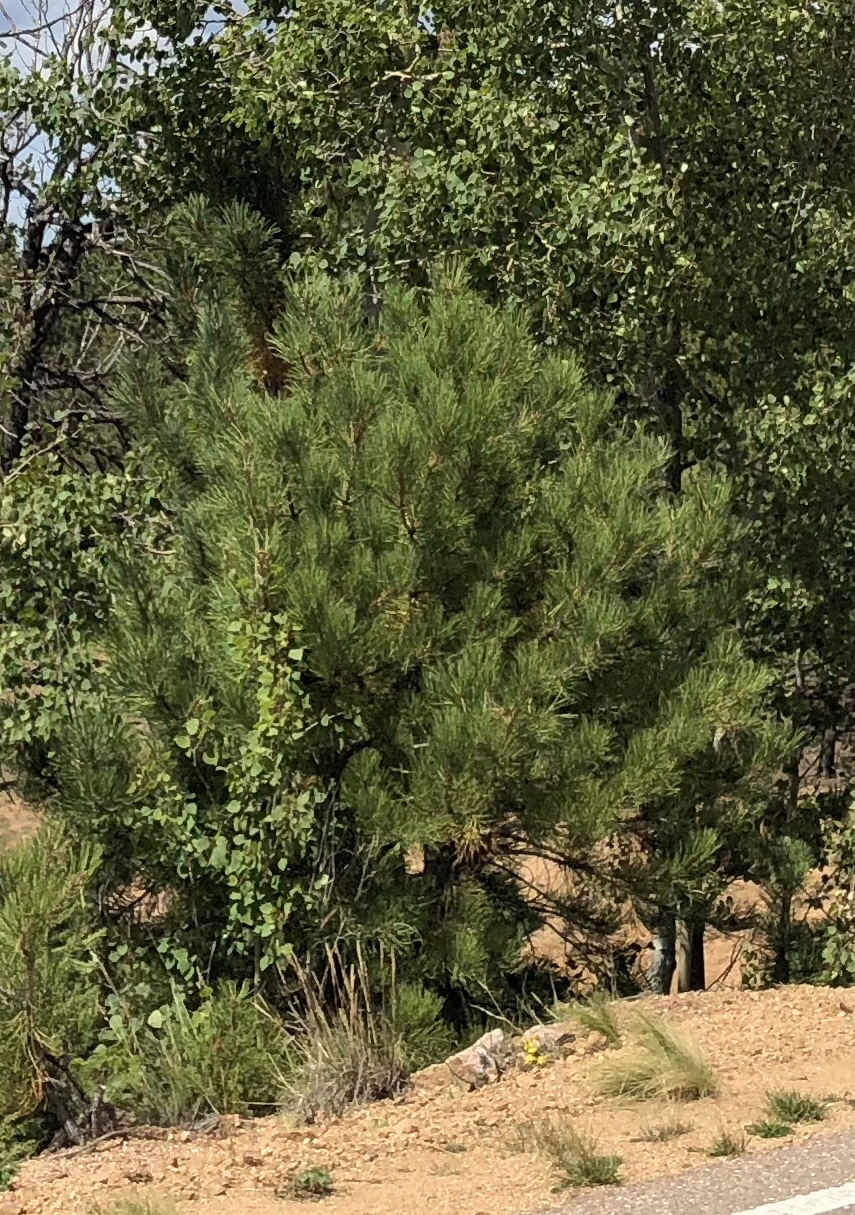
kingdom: Plantae
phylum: Tracheophyta
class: Pinopsida
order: Pinales
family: Pinaceae
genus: Pinus
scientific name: Pinus ponderosa
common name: Western yellow-pine
